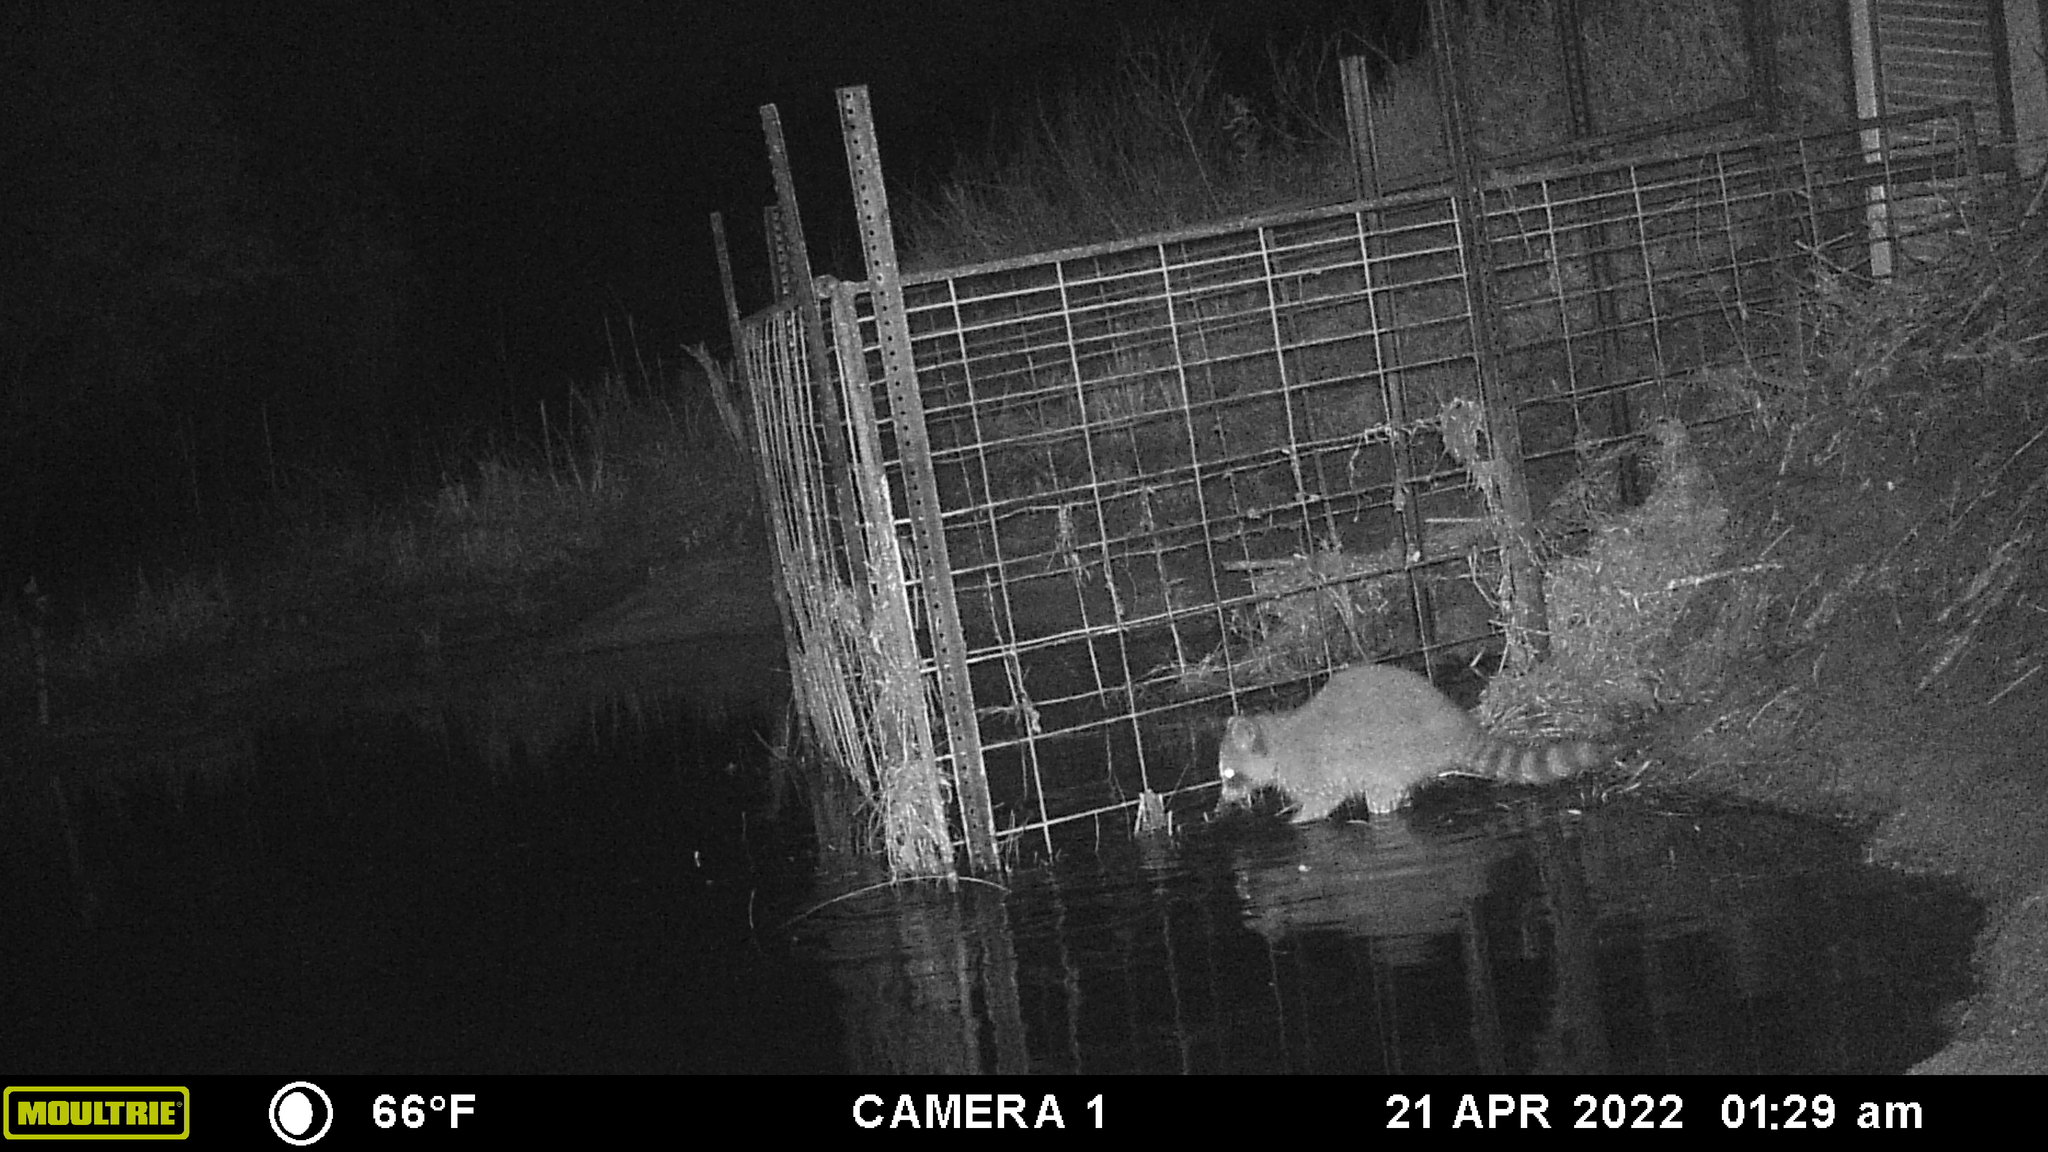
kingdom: Animalia
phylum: Chordata
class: Mammalia
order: Carnivora
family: Procyonidae
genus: Procyon
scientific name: Procyon lotor
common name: Raccoon
